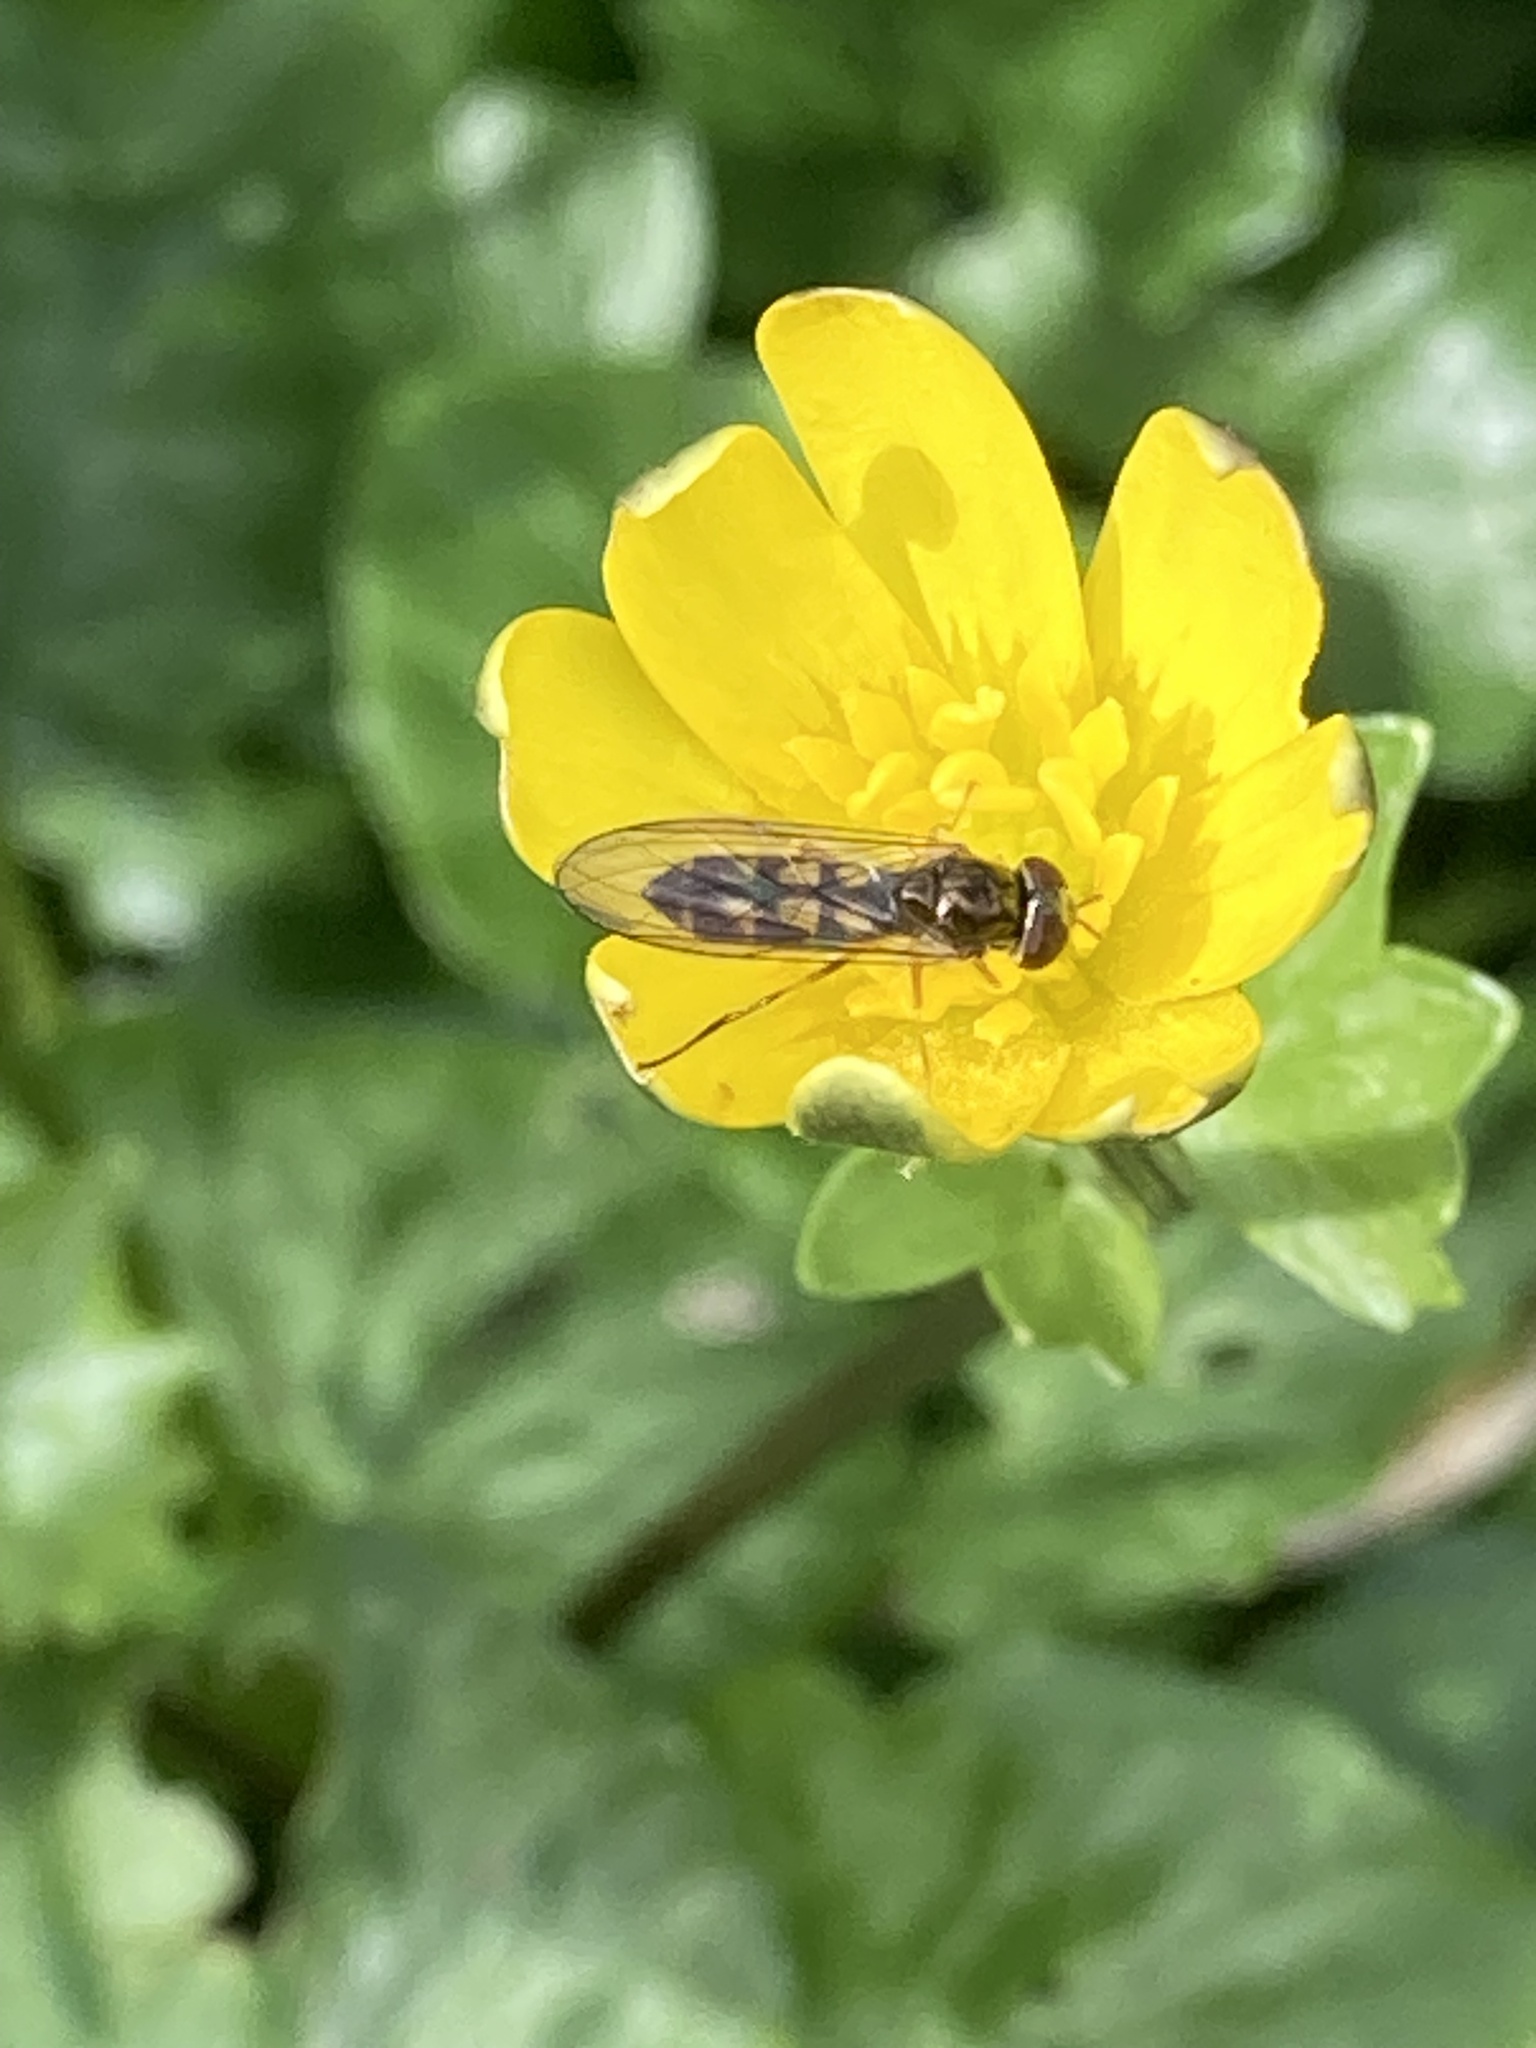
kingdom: Animalia
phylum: Arthropoda
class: Insecta
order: Diptera
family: Syrphidae
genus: Melanostoma
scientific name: Melanostoma scalare
